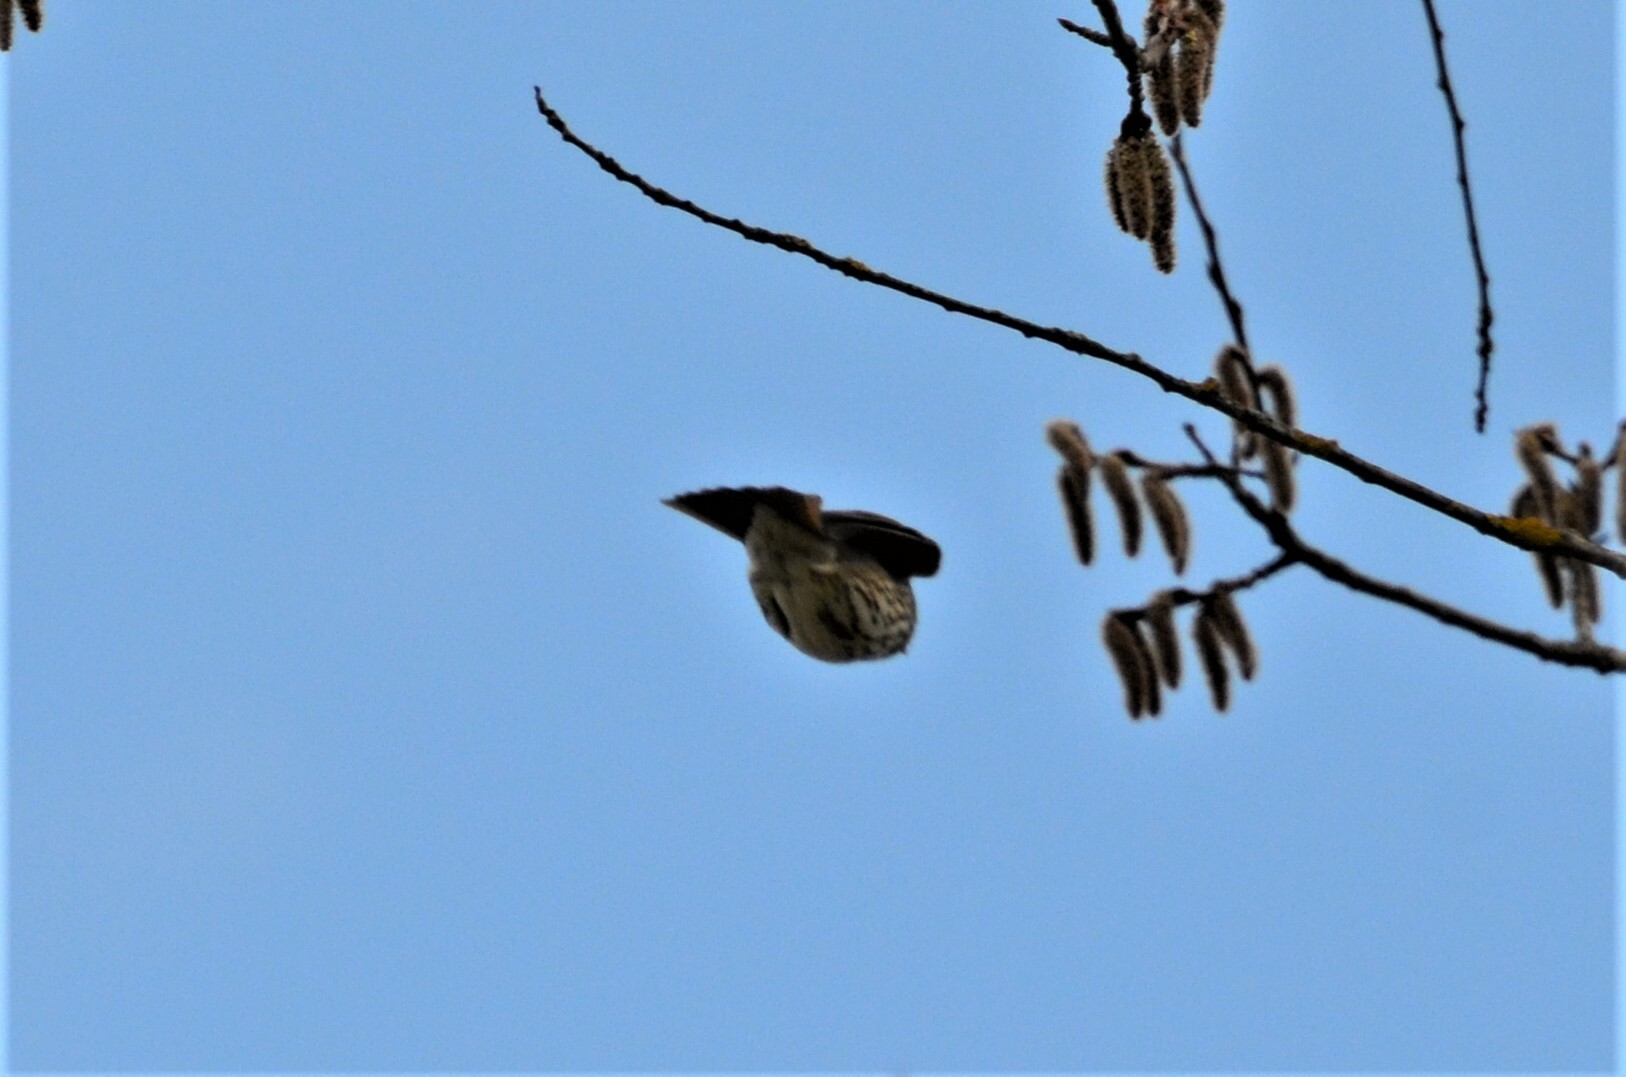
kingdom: Animalia
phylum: Chordata
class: Aves
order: Passeriformes
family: Turdidae
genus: Turdus
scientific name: Turdus philomelos
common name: Song thrush
